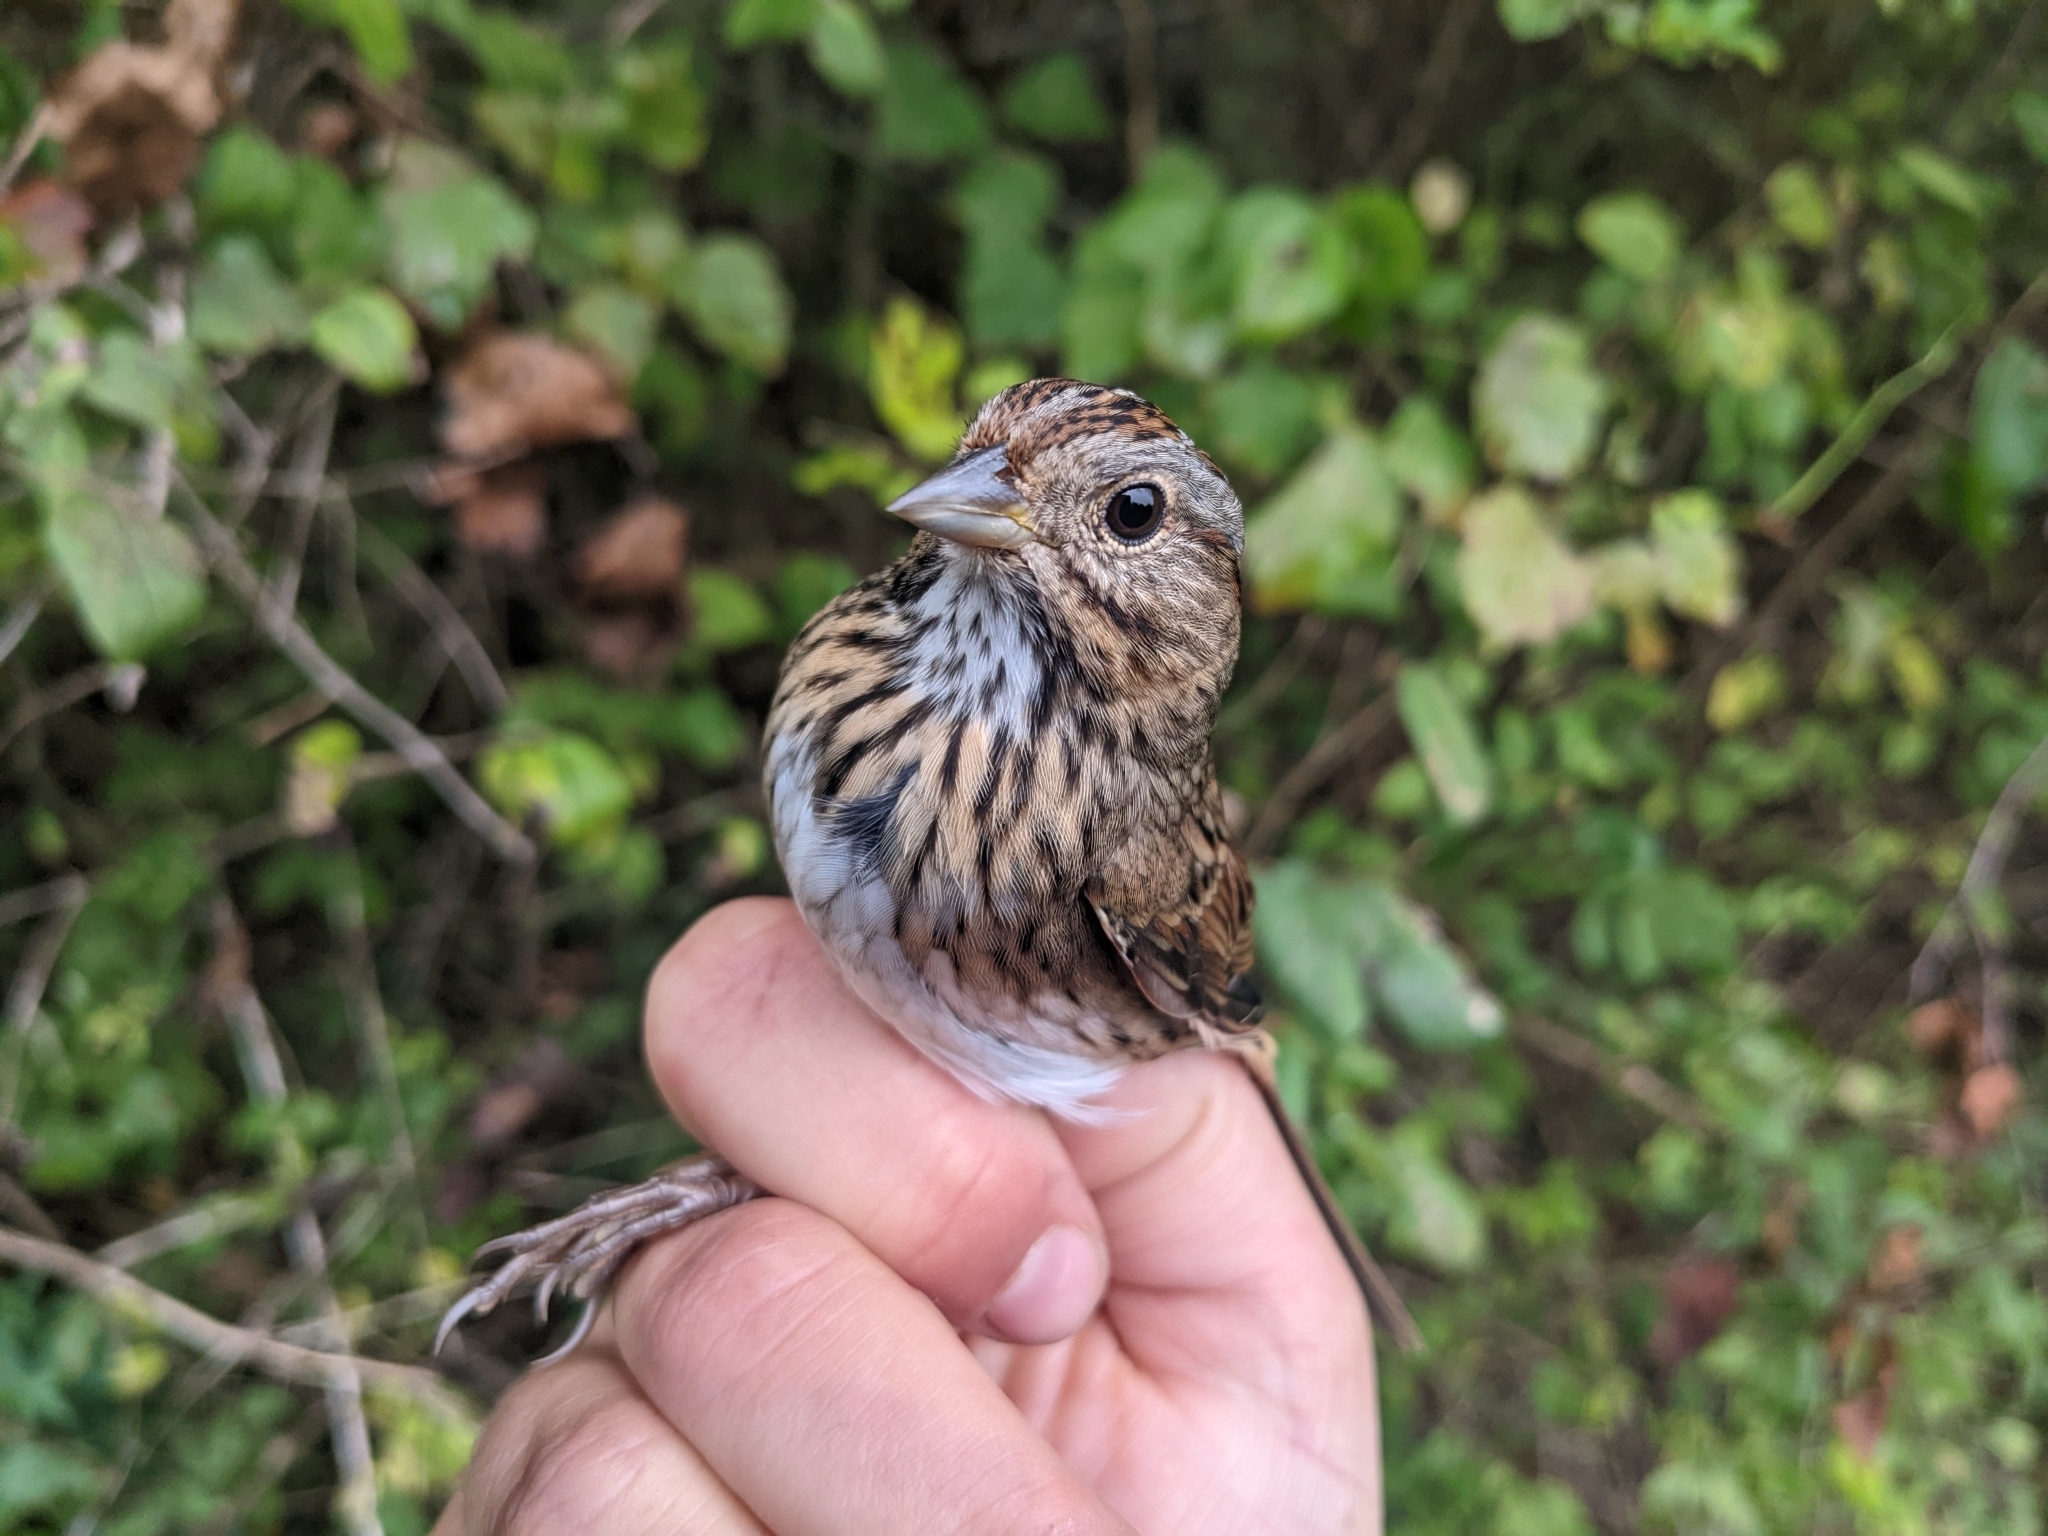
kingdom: Animalia
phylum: Chordata
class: Aves
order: Passeriformes
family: Passerellidae
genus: Melospiza
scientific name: Melospiza lincolnii
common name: Lincoln's sparrow
